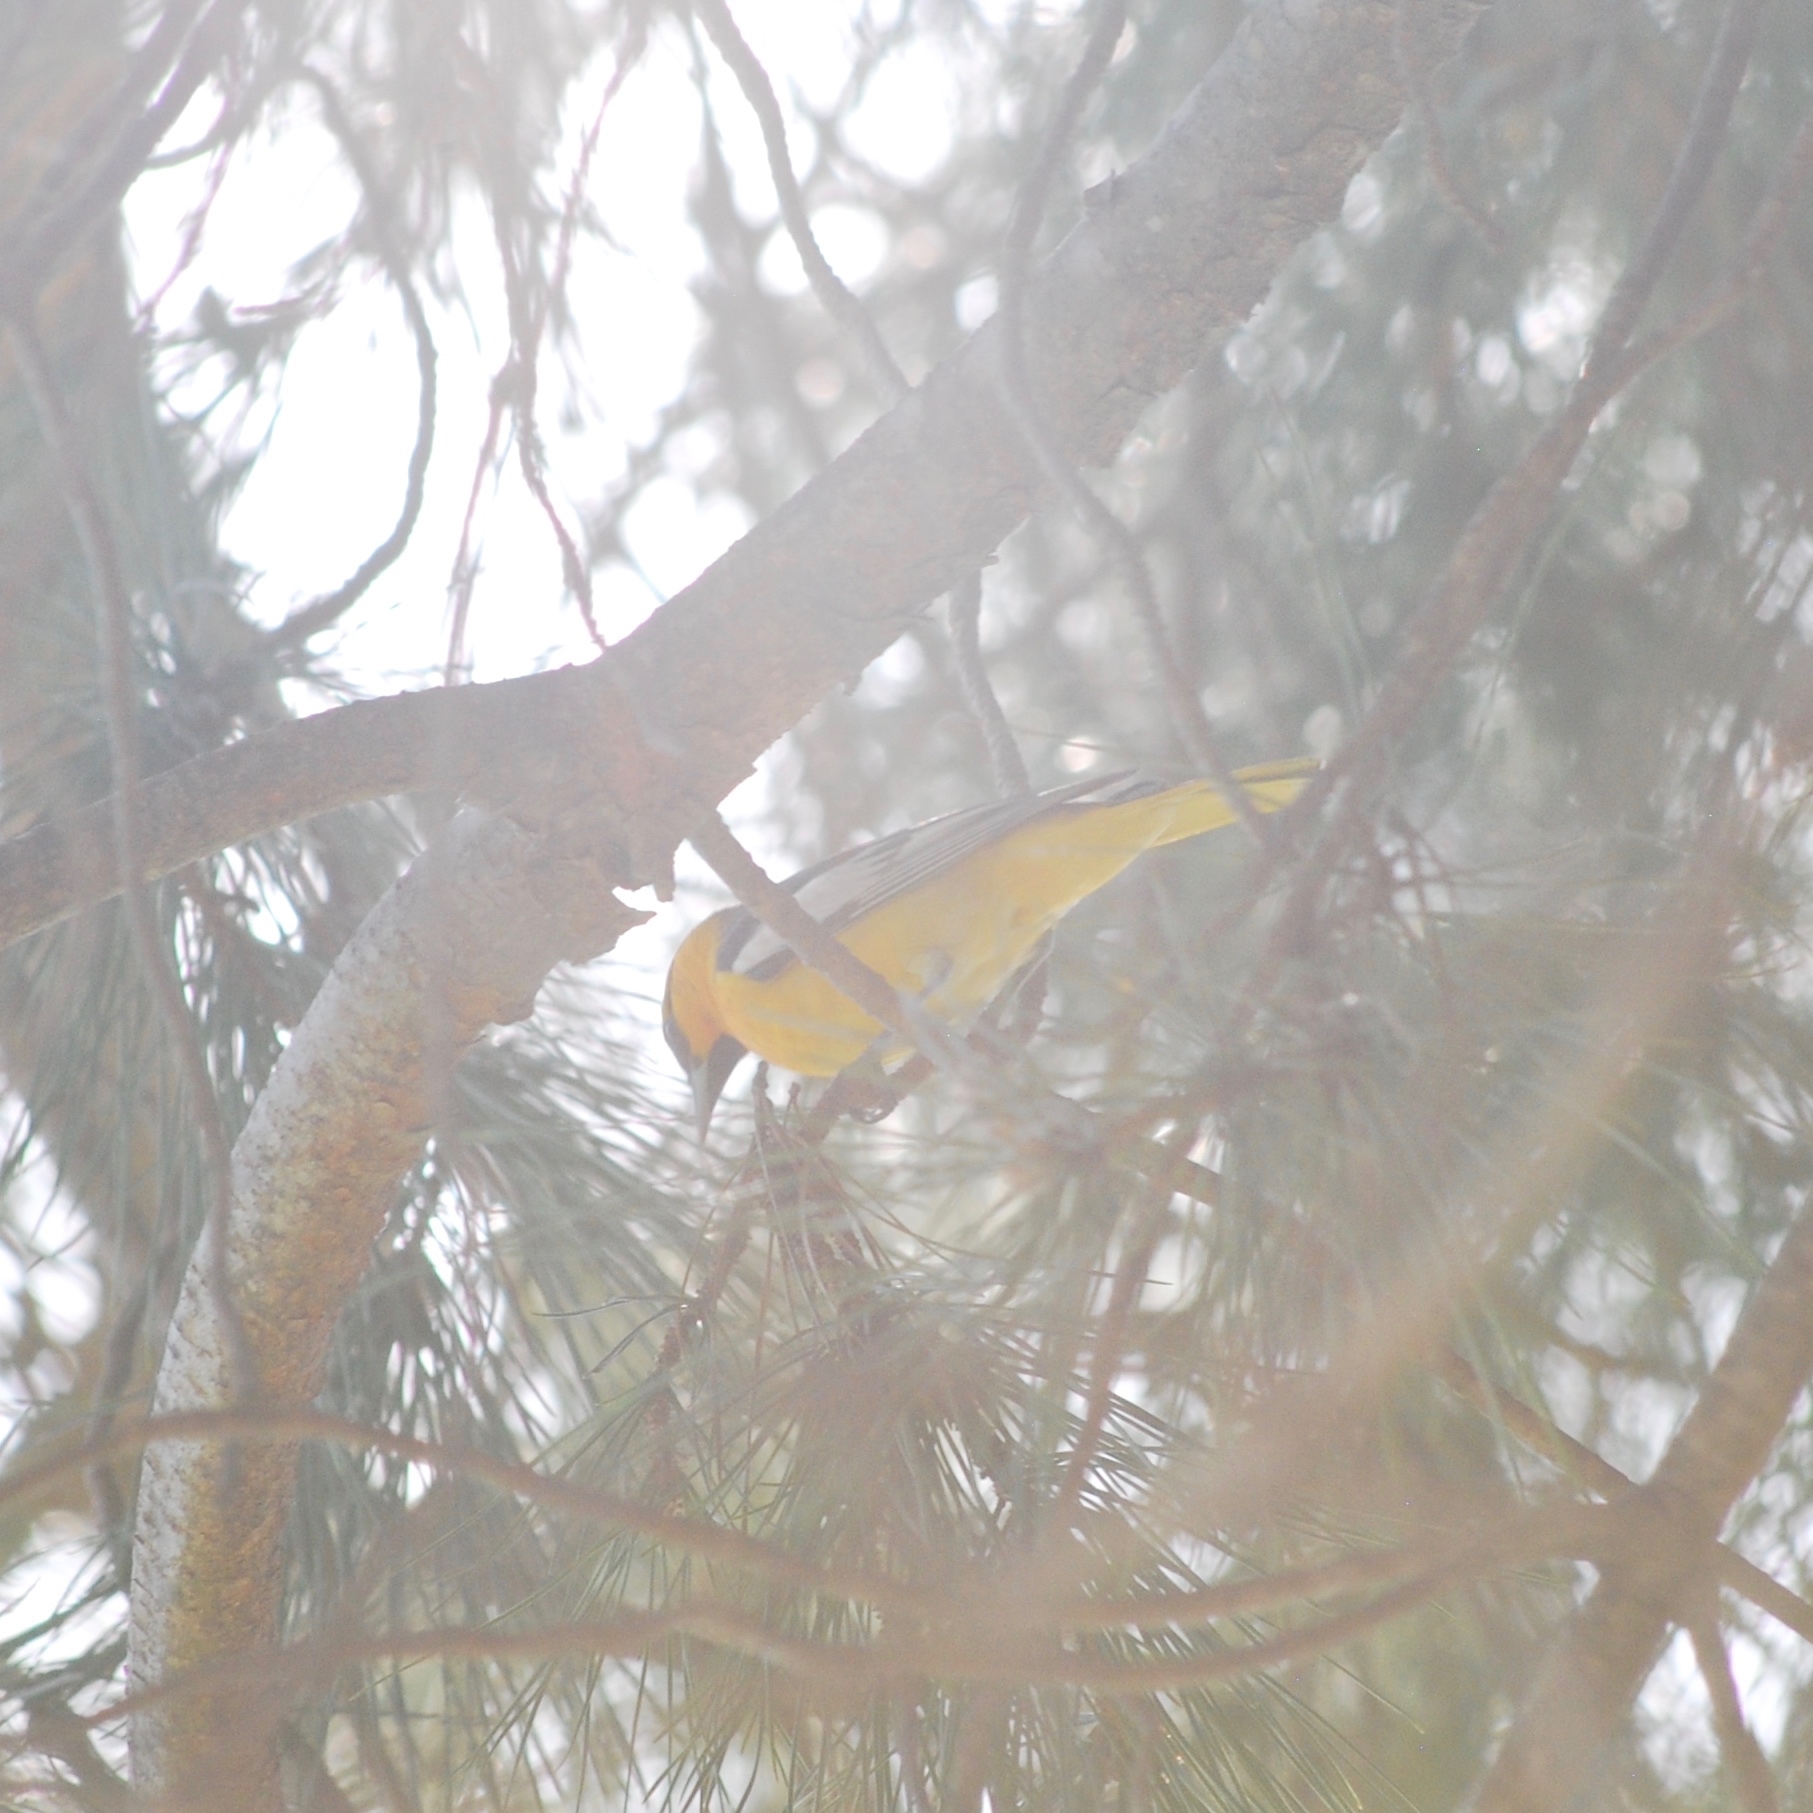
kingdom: Animalia
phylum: Chordata
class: Aves
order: Passeriformes
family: Icteridae
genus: Icterus
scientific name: Icterus bullockii
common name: Bullock's oriole
